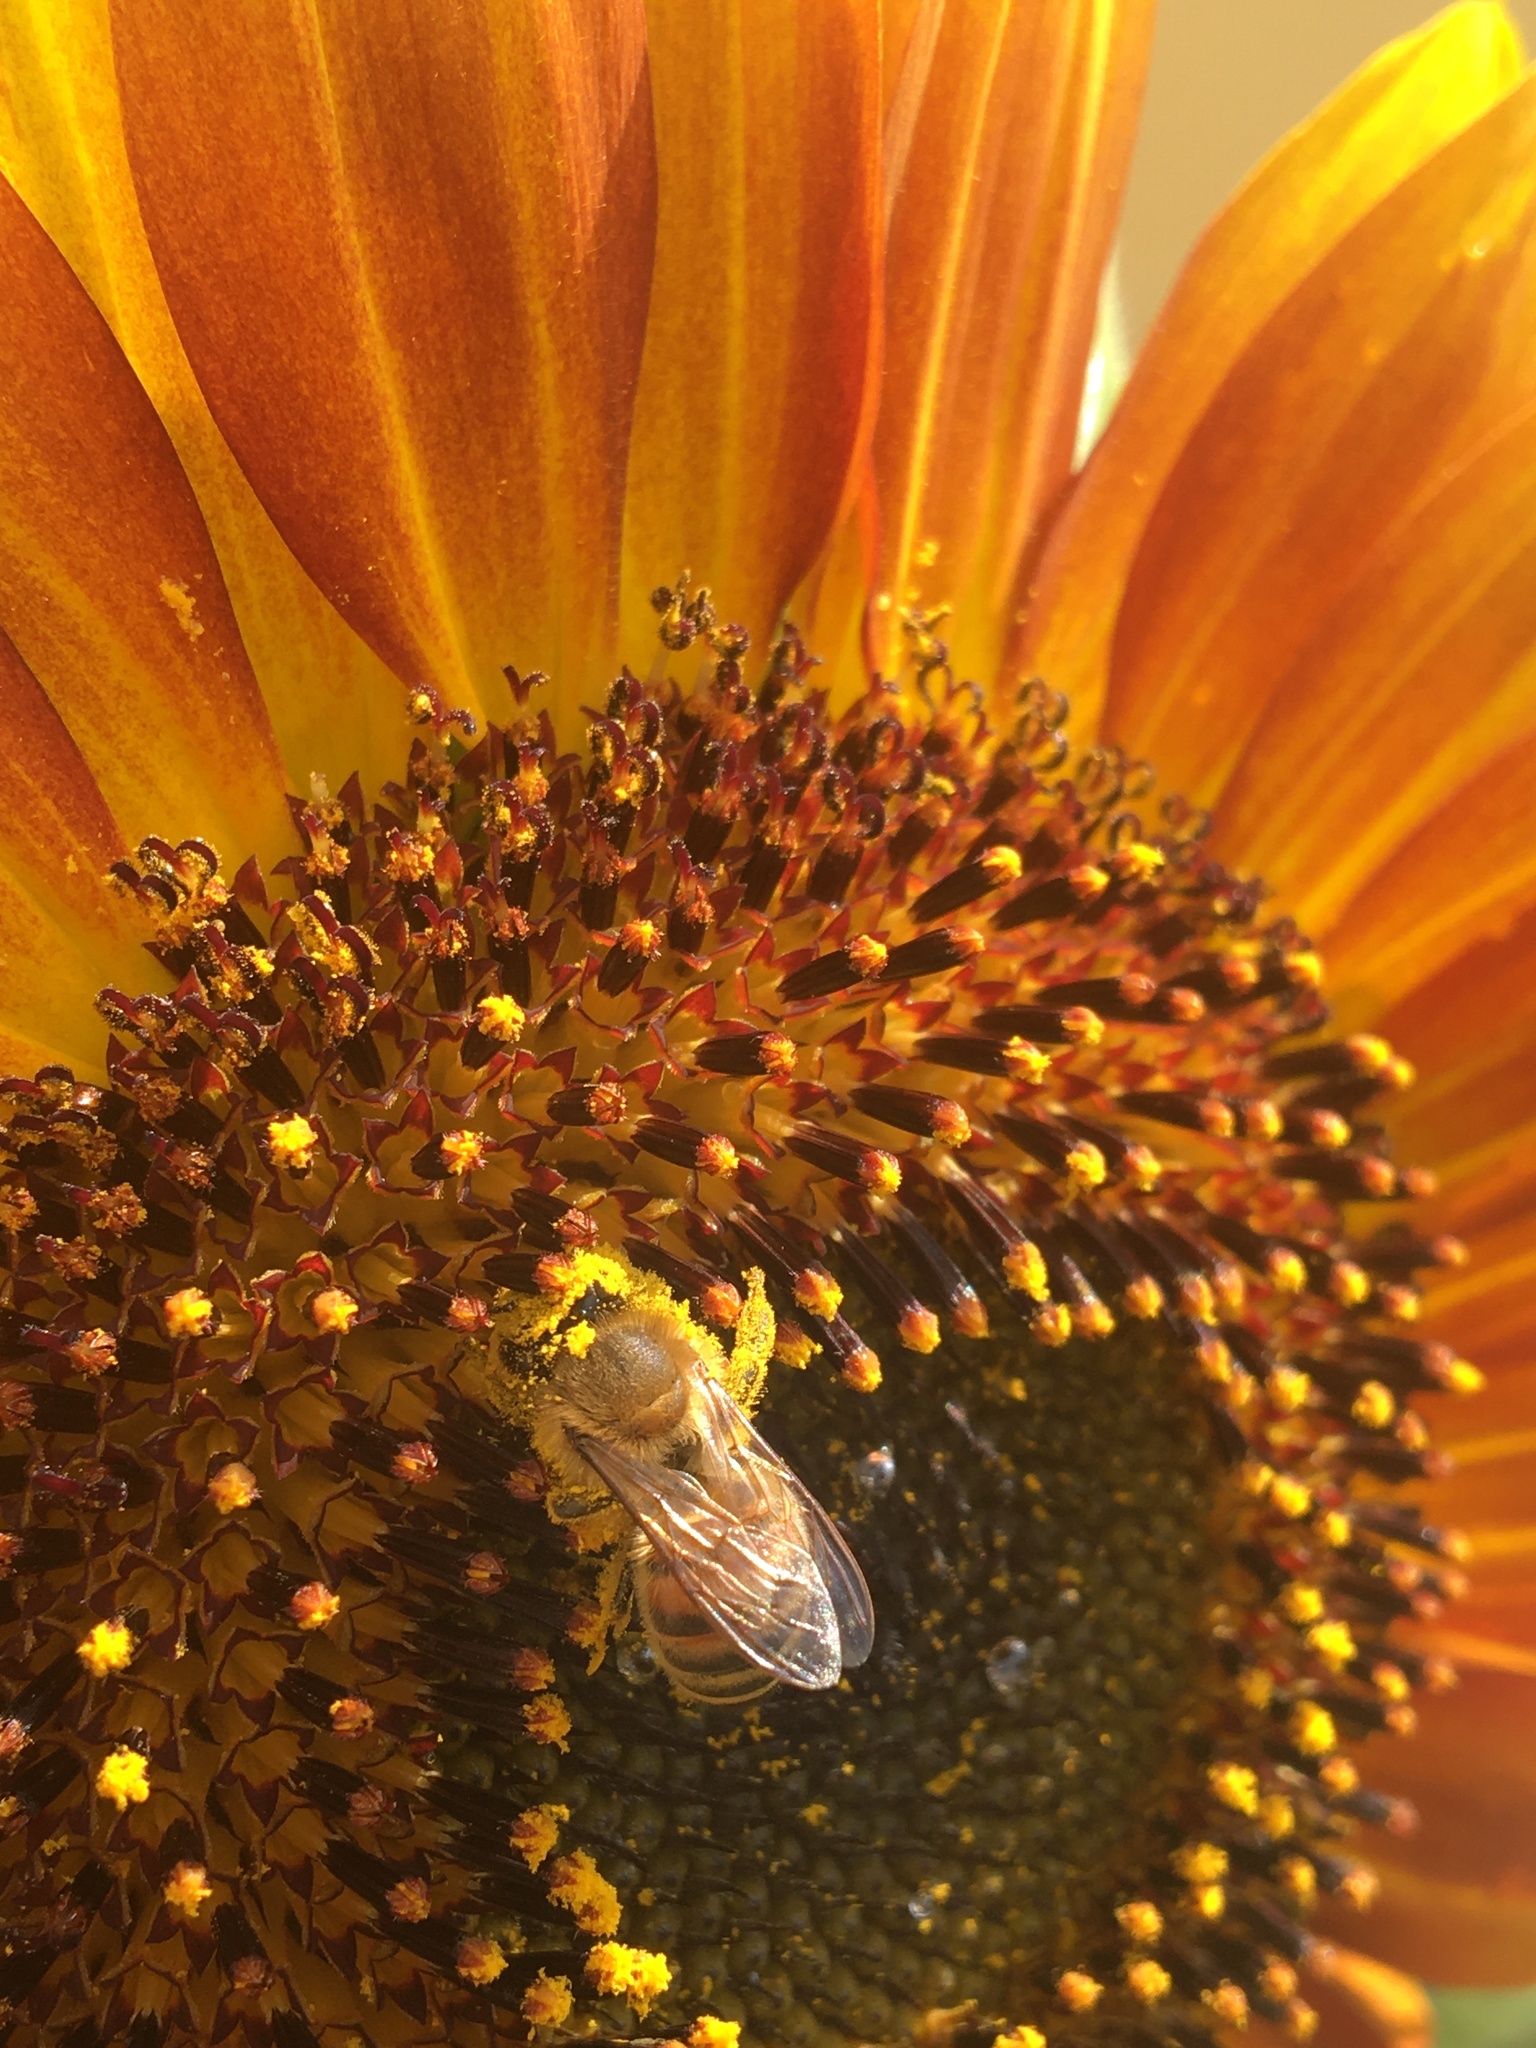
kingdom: Animalia
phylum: Arthropoda
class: Insecta
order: Hymenoptera
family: Apidae
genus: Apis
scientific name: Apis mellifera
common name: Honey bee
